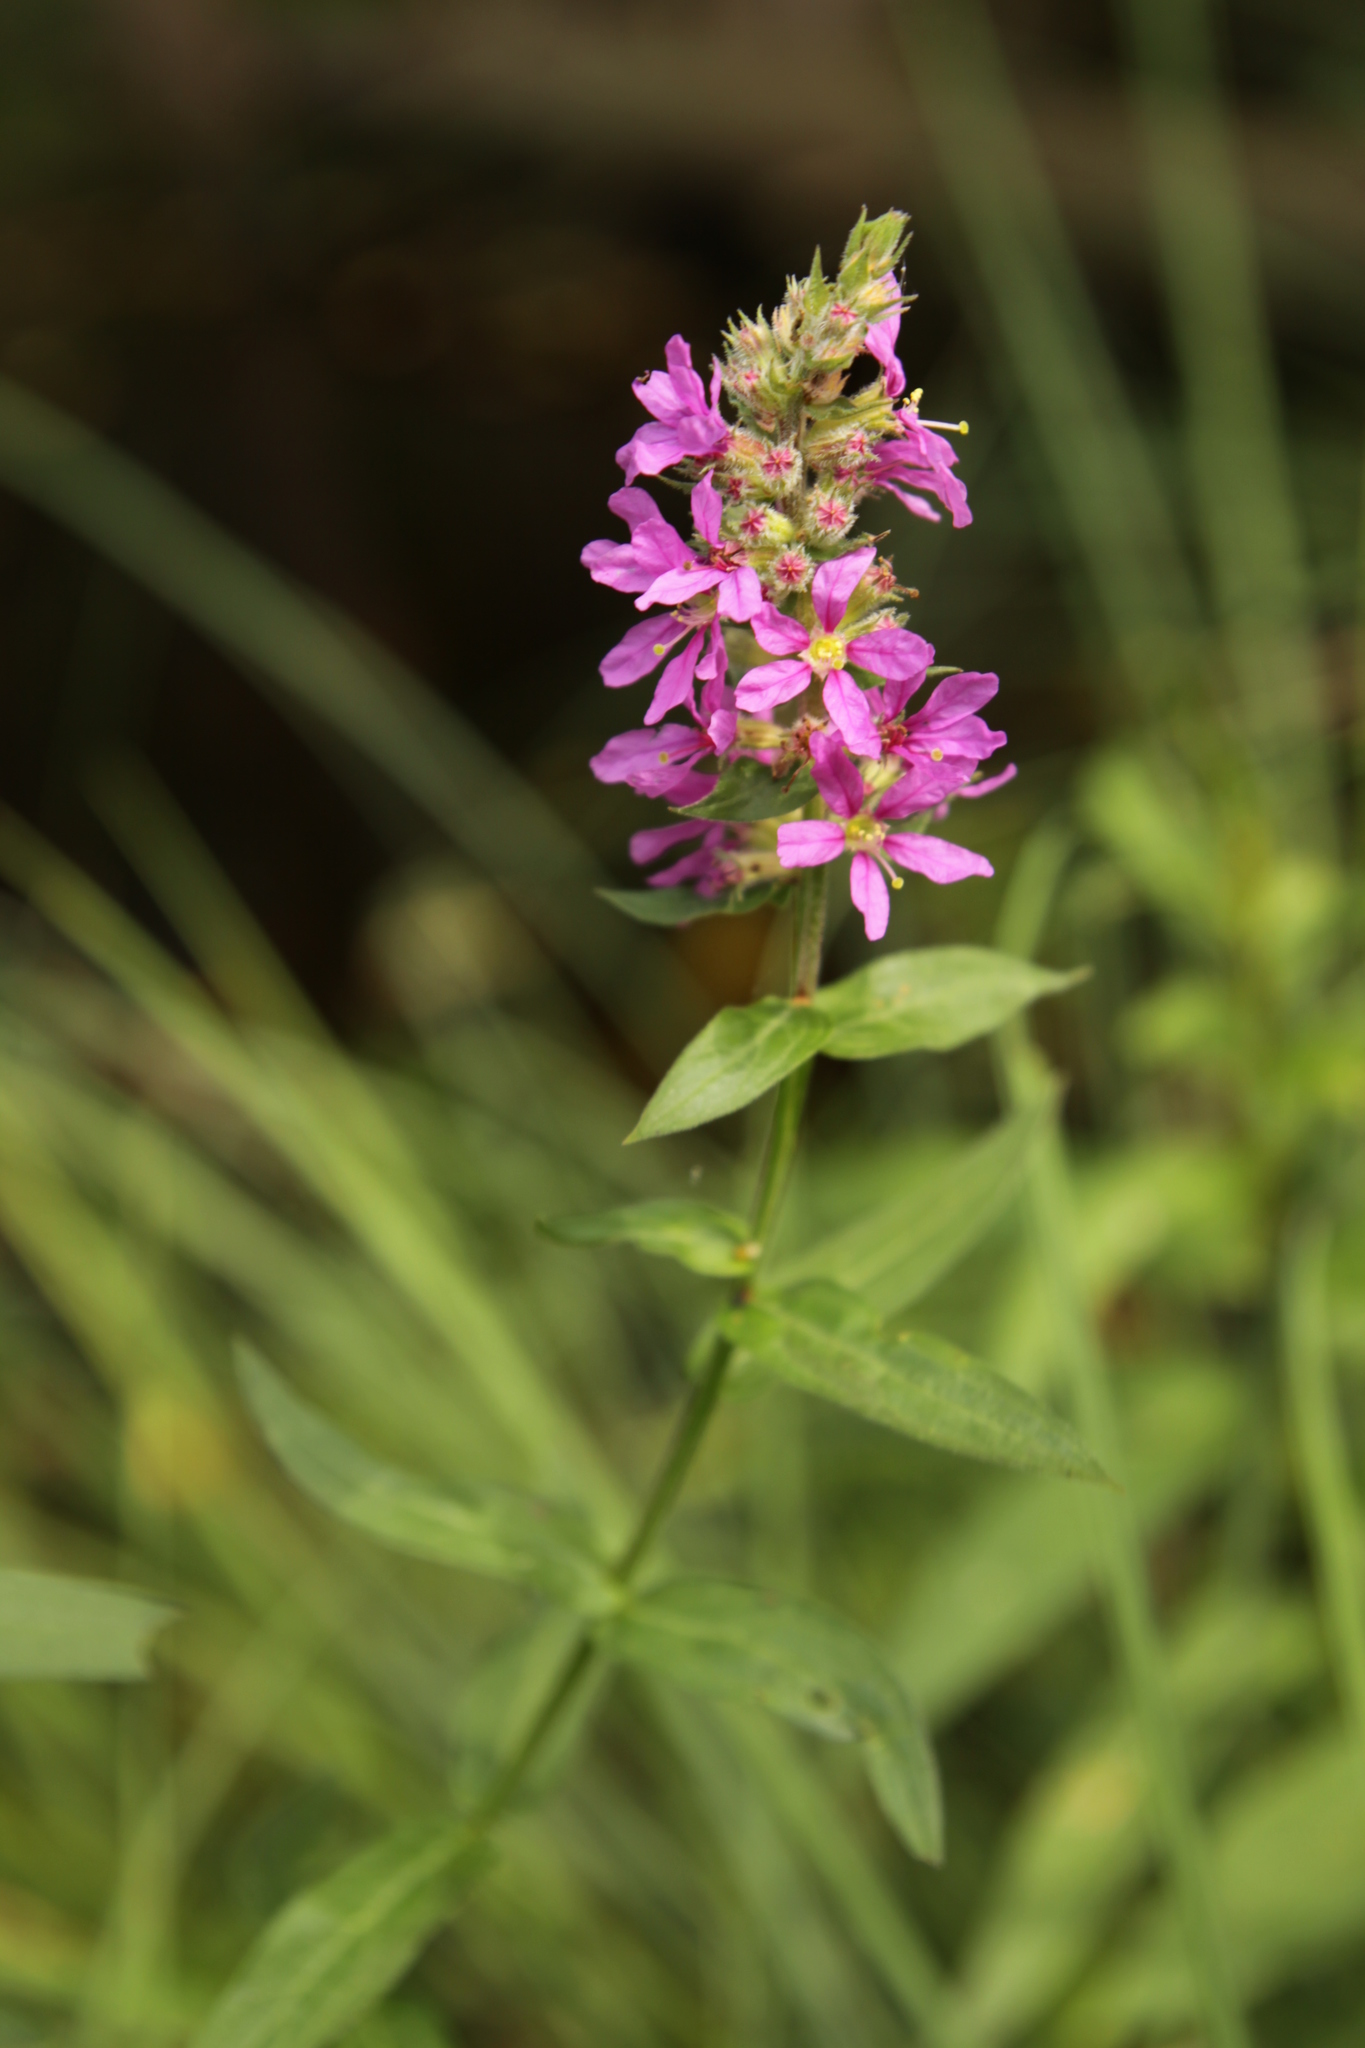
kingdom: Plantae
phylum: Tracheophyta
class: Magnoliopsida
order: Myrtales
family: Lythraceae
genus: Lythrum
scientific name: Lythrum salicaria
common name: Purple loosestrife
